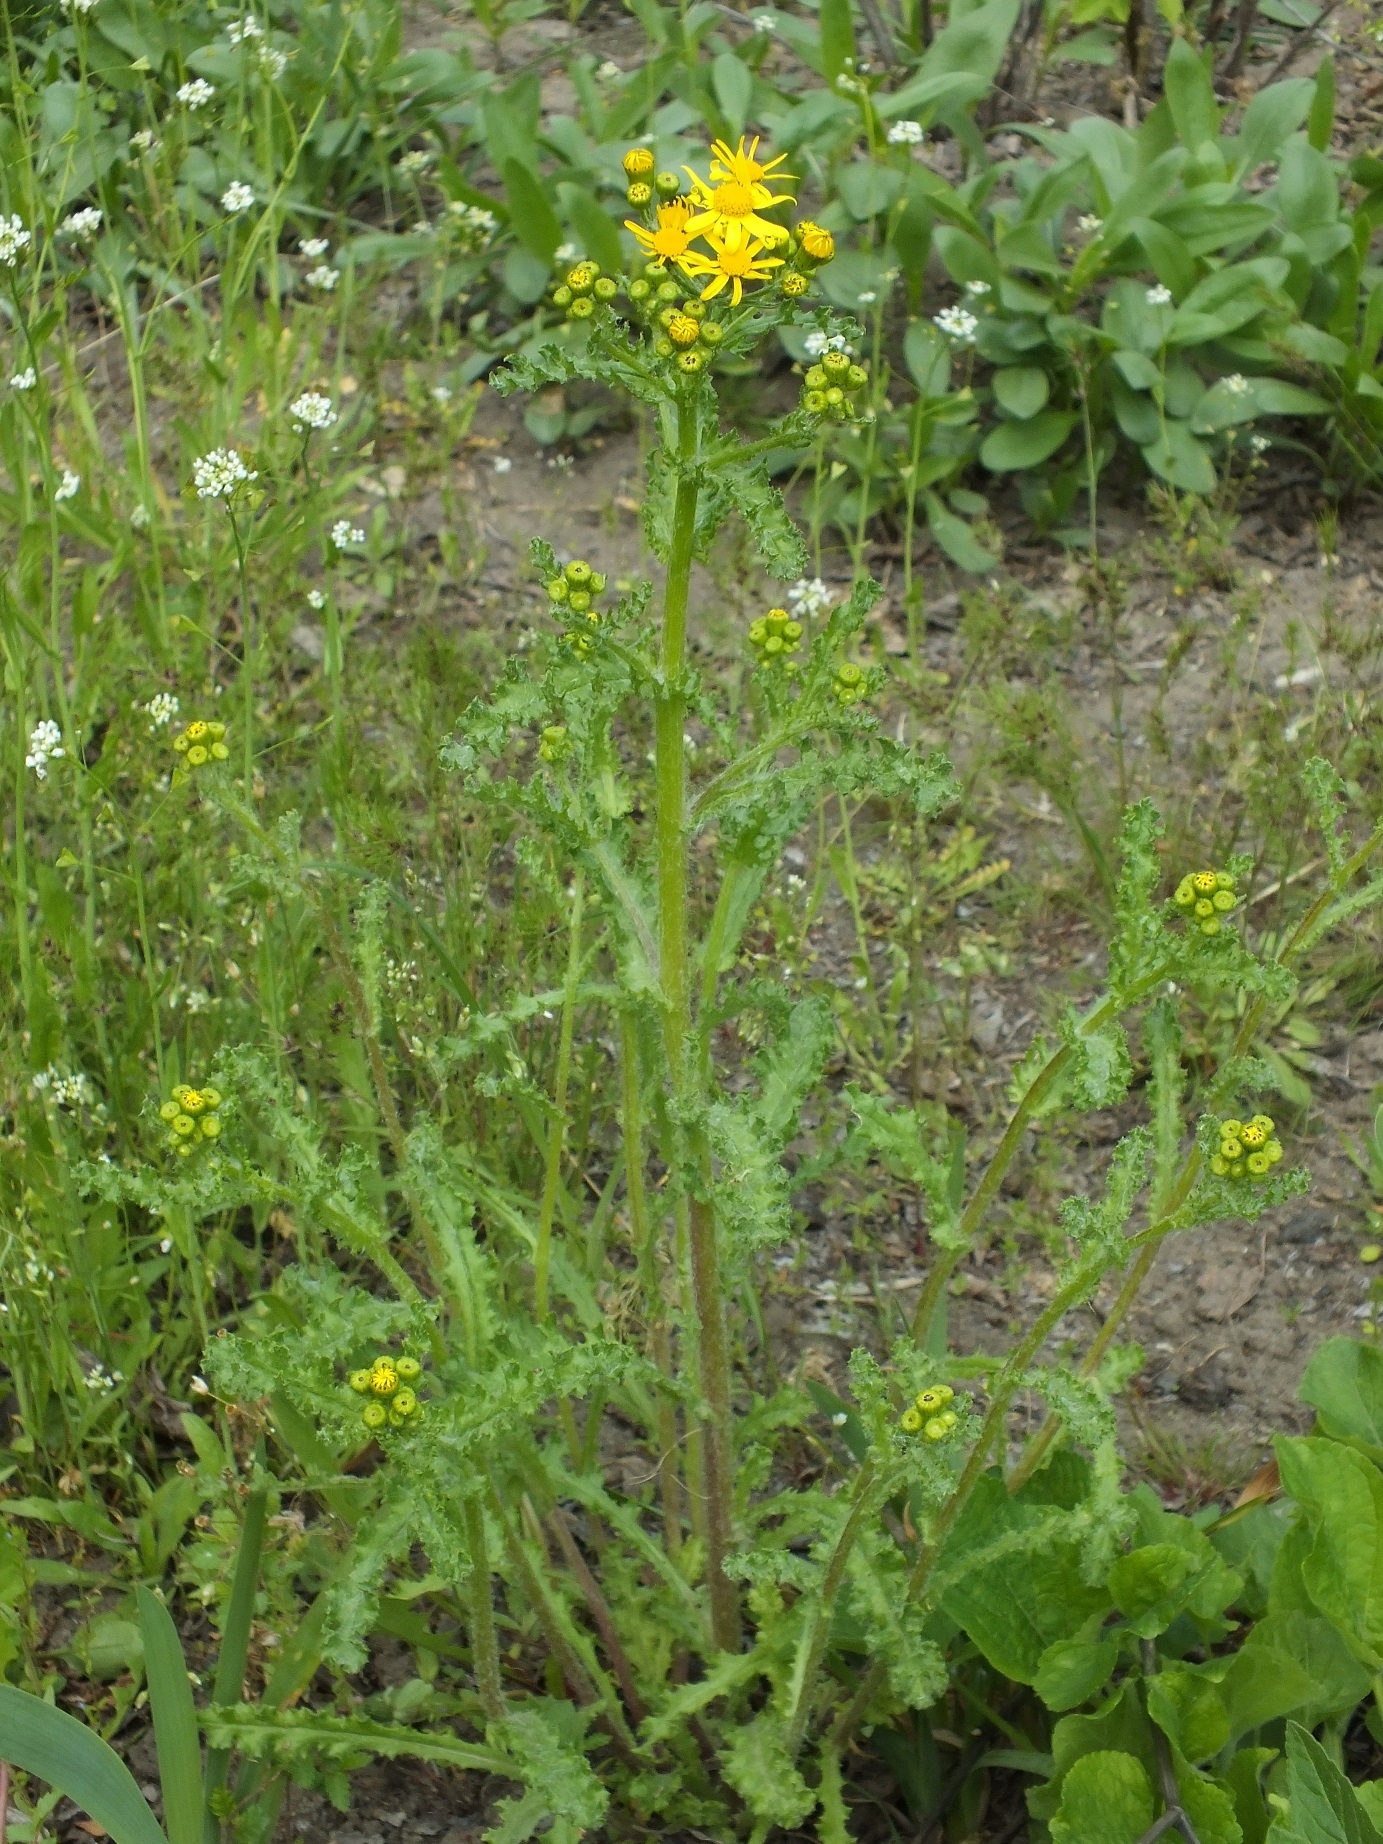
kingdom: Plantae
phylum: Tracheophyta
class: Magnoliopsida
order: Asterales
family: Asteraceae
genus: Senecio
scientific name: Senecio vernalis
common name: Eastern groundsel
